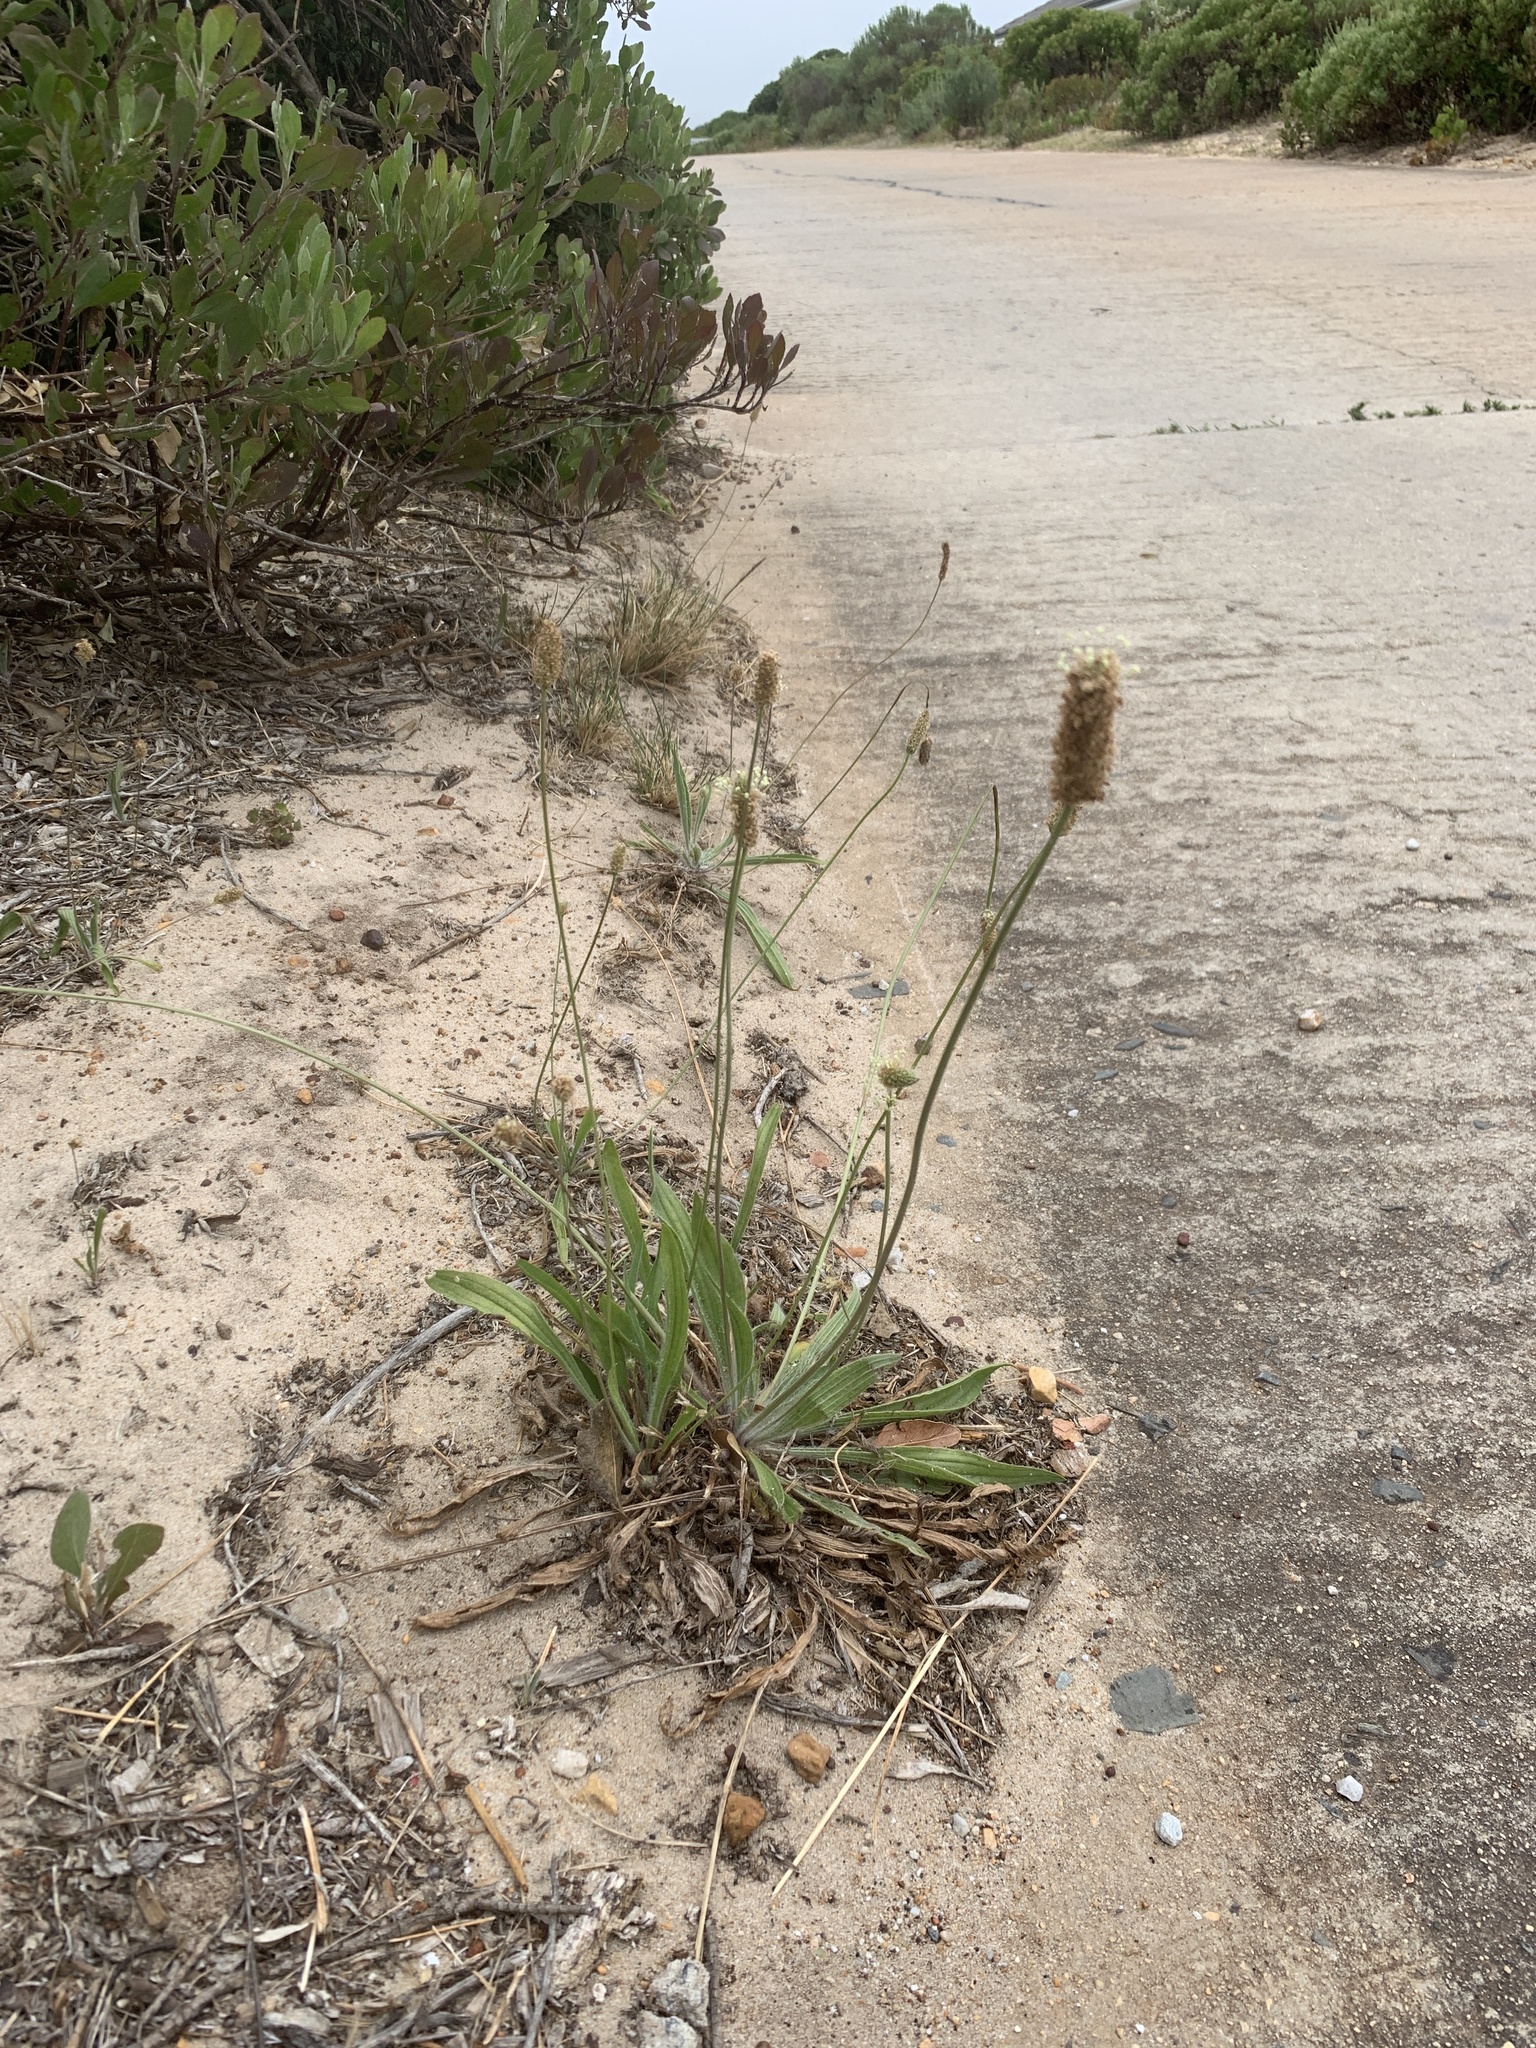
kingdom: Plantae
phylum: Tracheophyta
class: Magnoliopsida
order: Lamiales
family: Plantaginaceae
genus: Plantago
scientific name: Plantago lanceolata
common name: Ribwort plantain
